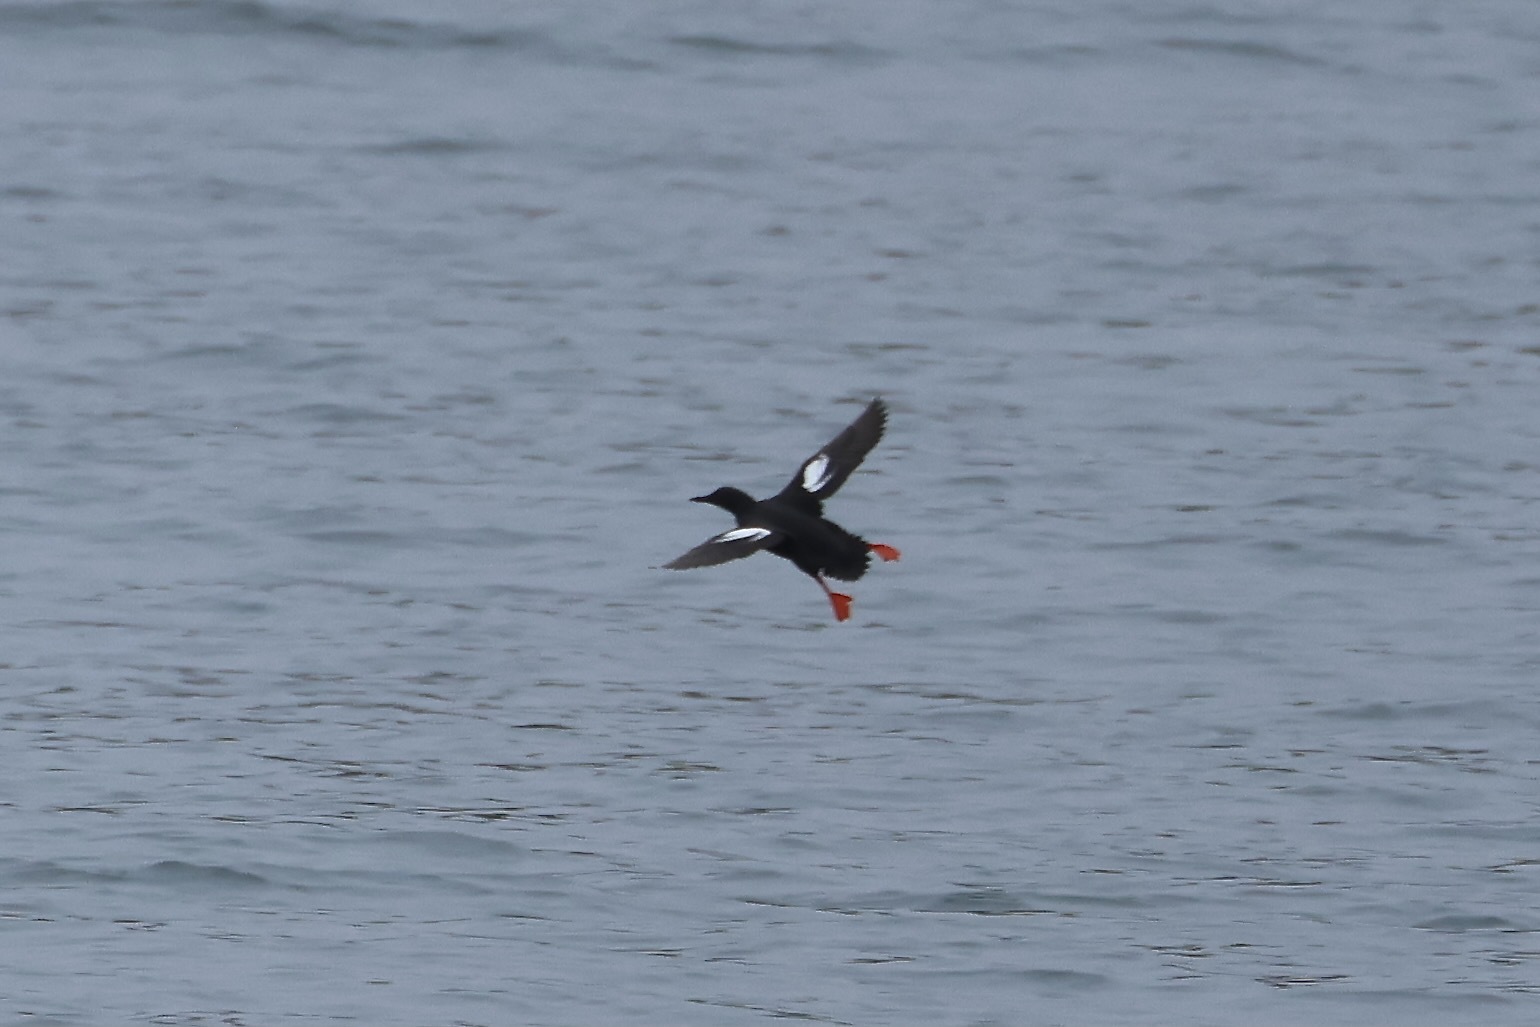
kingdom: Animalia
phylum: Chordata
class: Aves
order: Charadriiformes
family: Alcidae
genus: Cepphus
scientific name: Cepphus columba
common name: Pigeon guillemot
